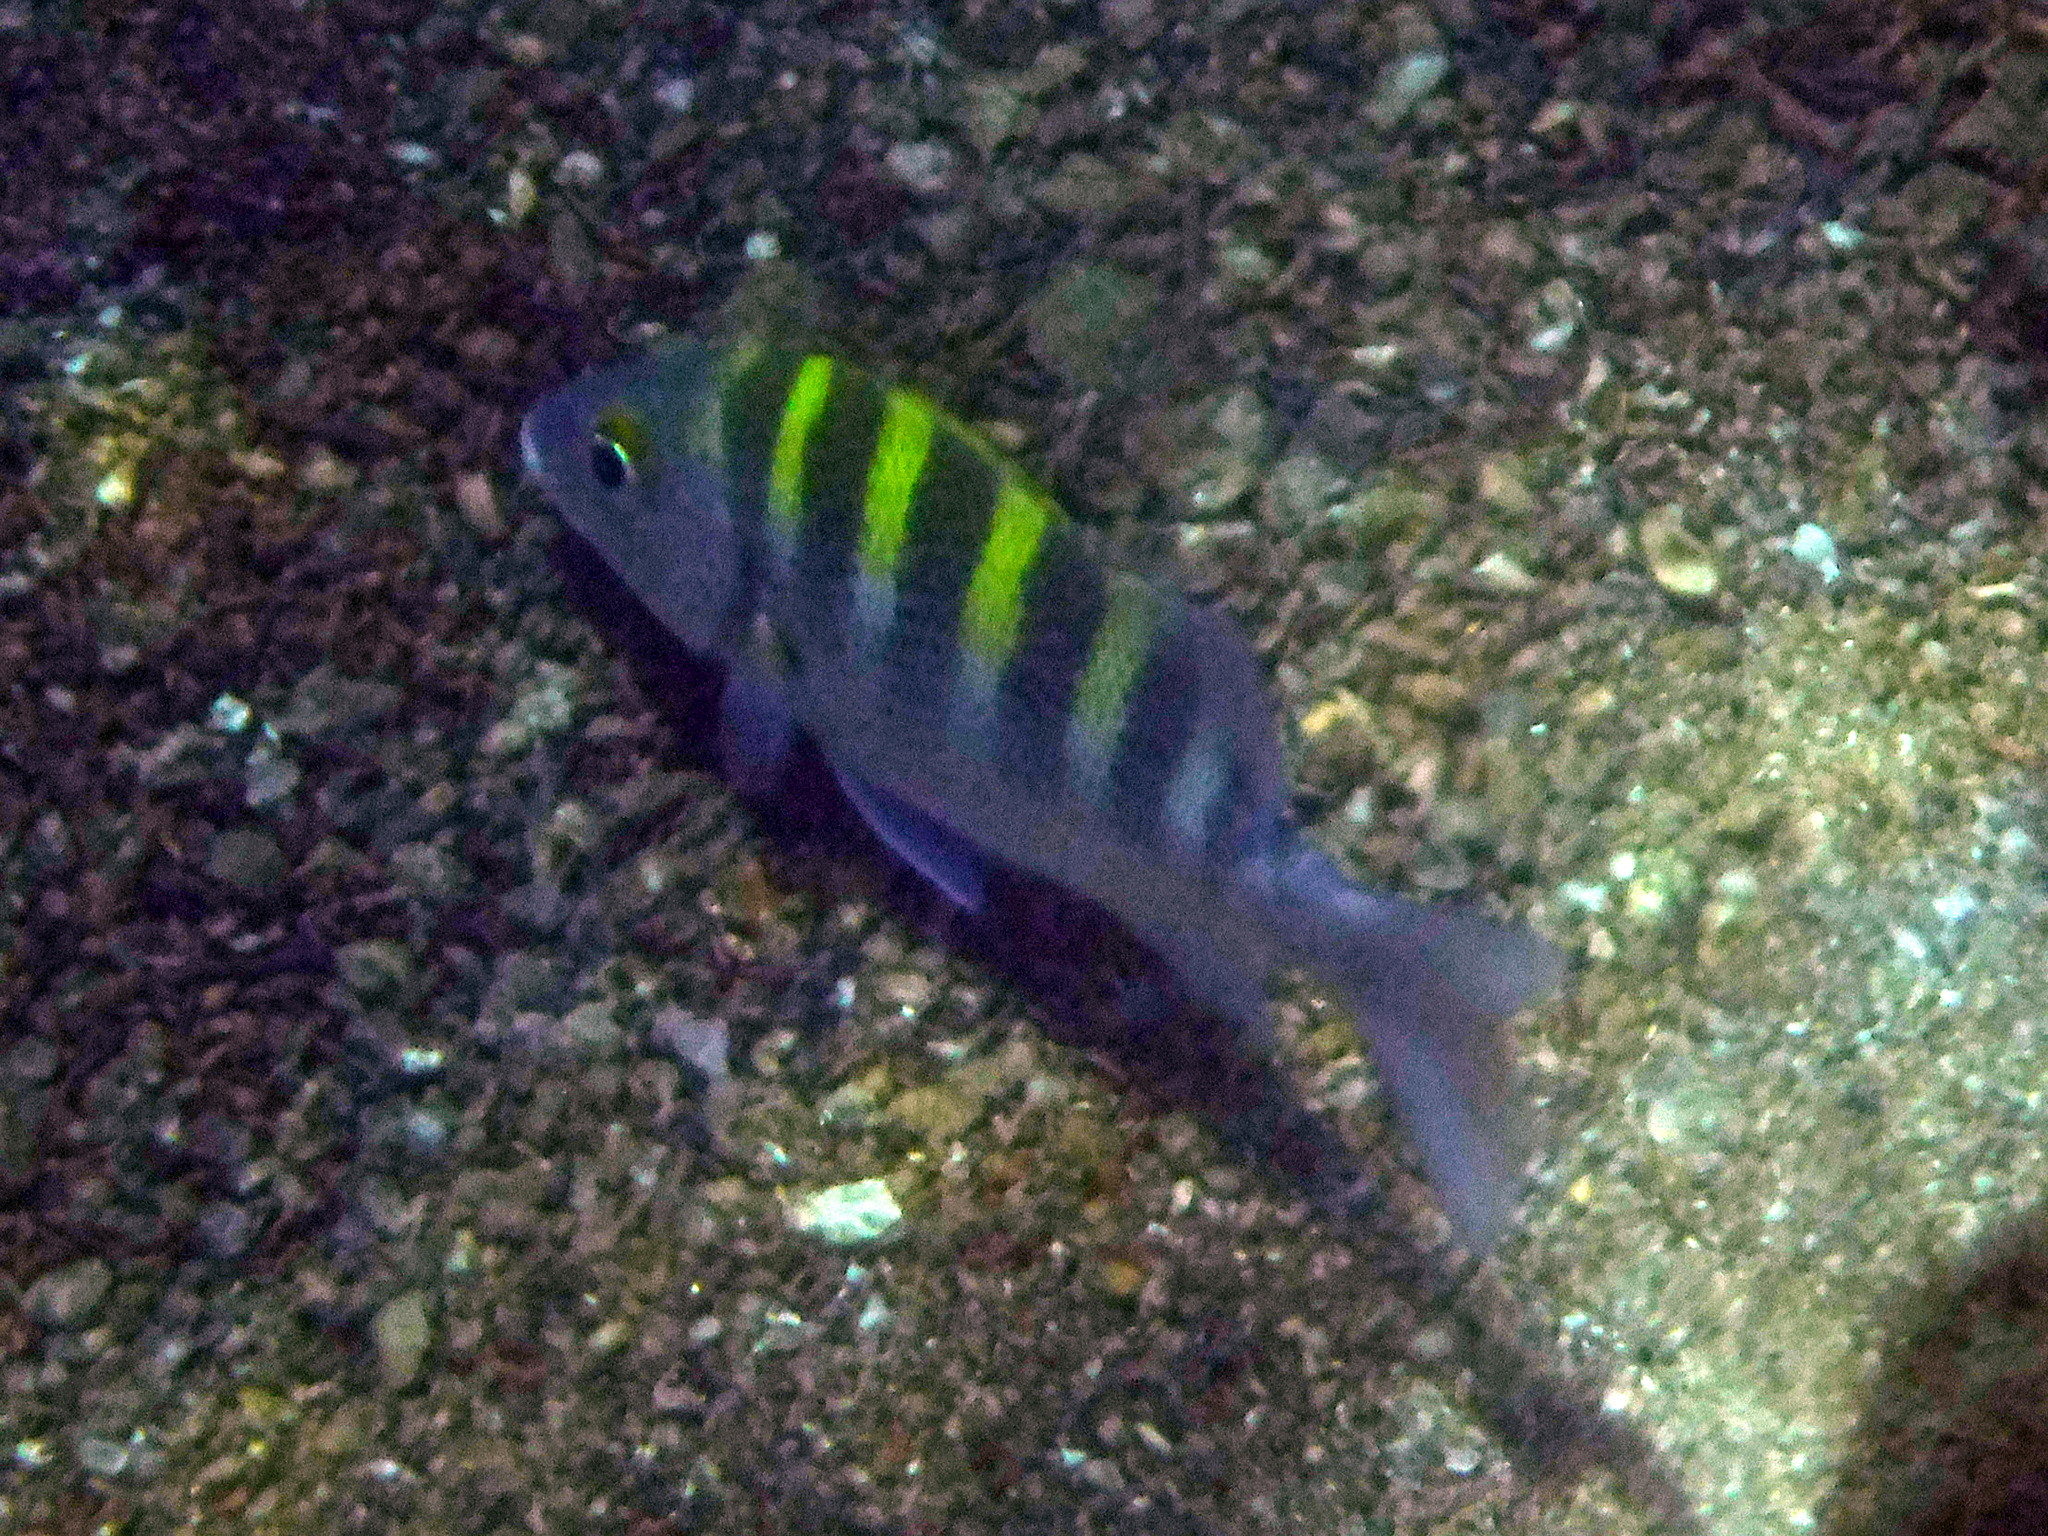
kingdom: Animalia
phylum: Chordata
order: Perciformes
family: Haemulidae
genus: Haemulon
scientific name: Haemulon sexfasciatum
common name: Graybar grunt
